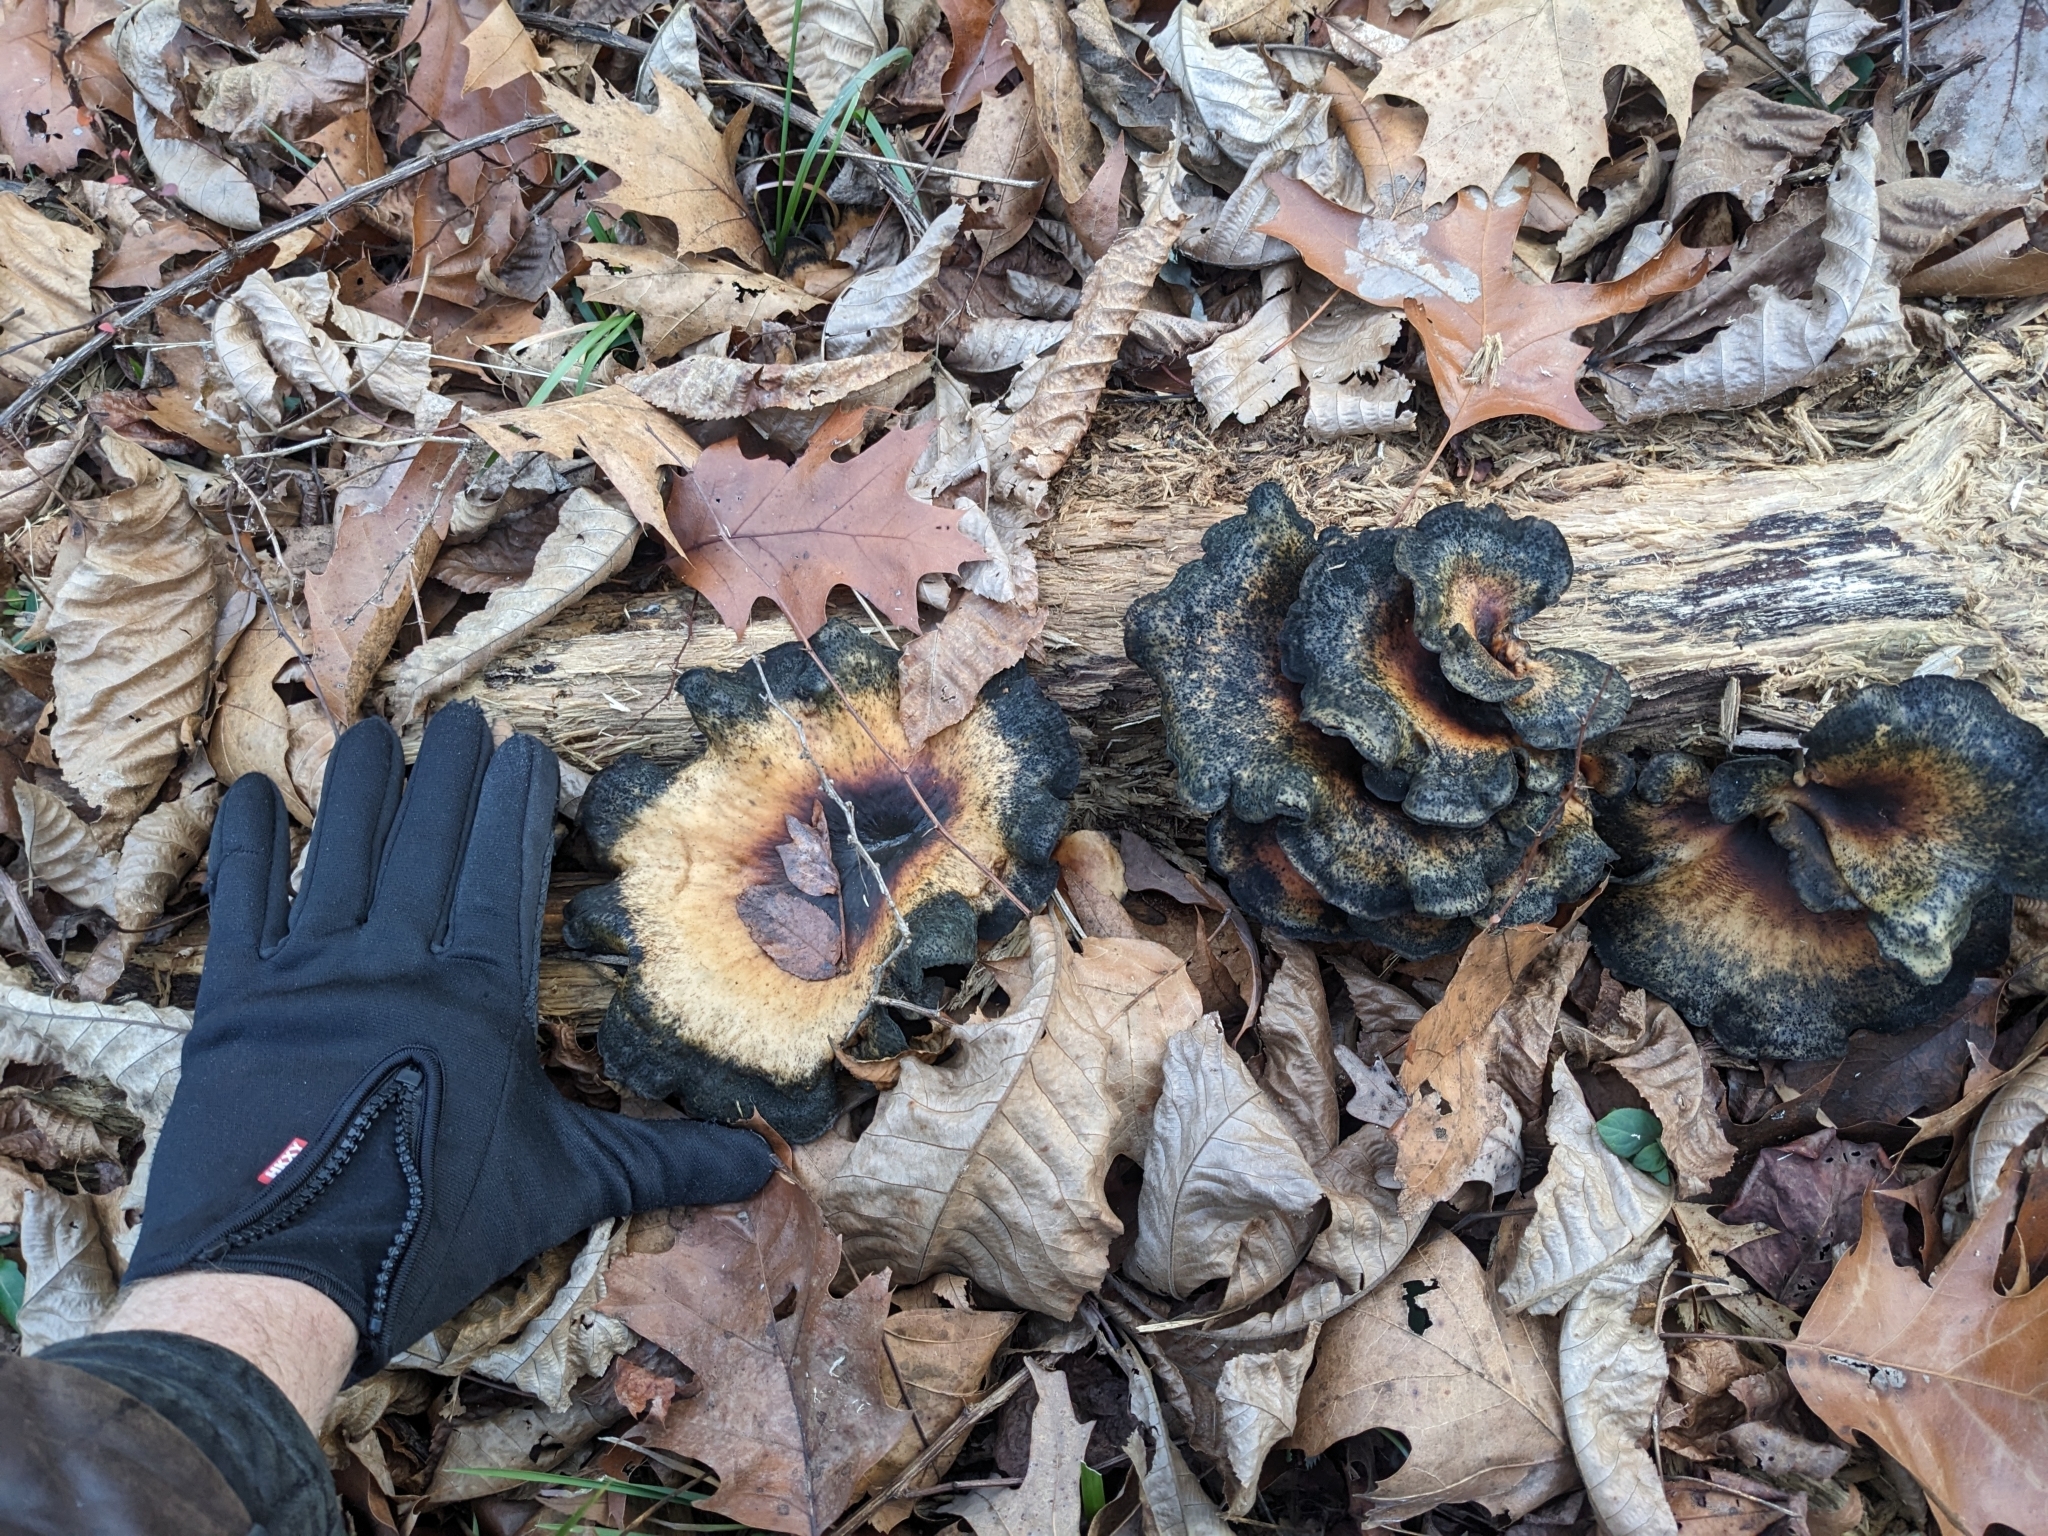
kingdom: Fungi
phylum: Basidiomycota
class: Agaricomycetes
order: Polyporales
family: Polyporaceae
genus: Picipes
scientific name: Picipes badius
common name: Bay polypore
